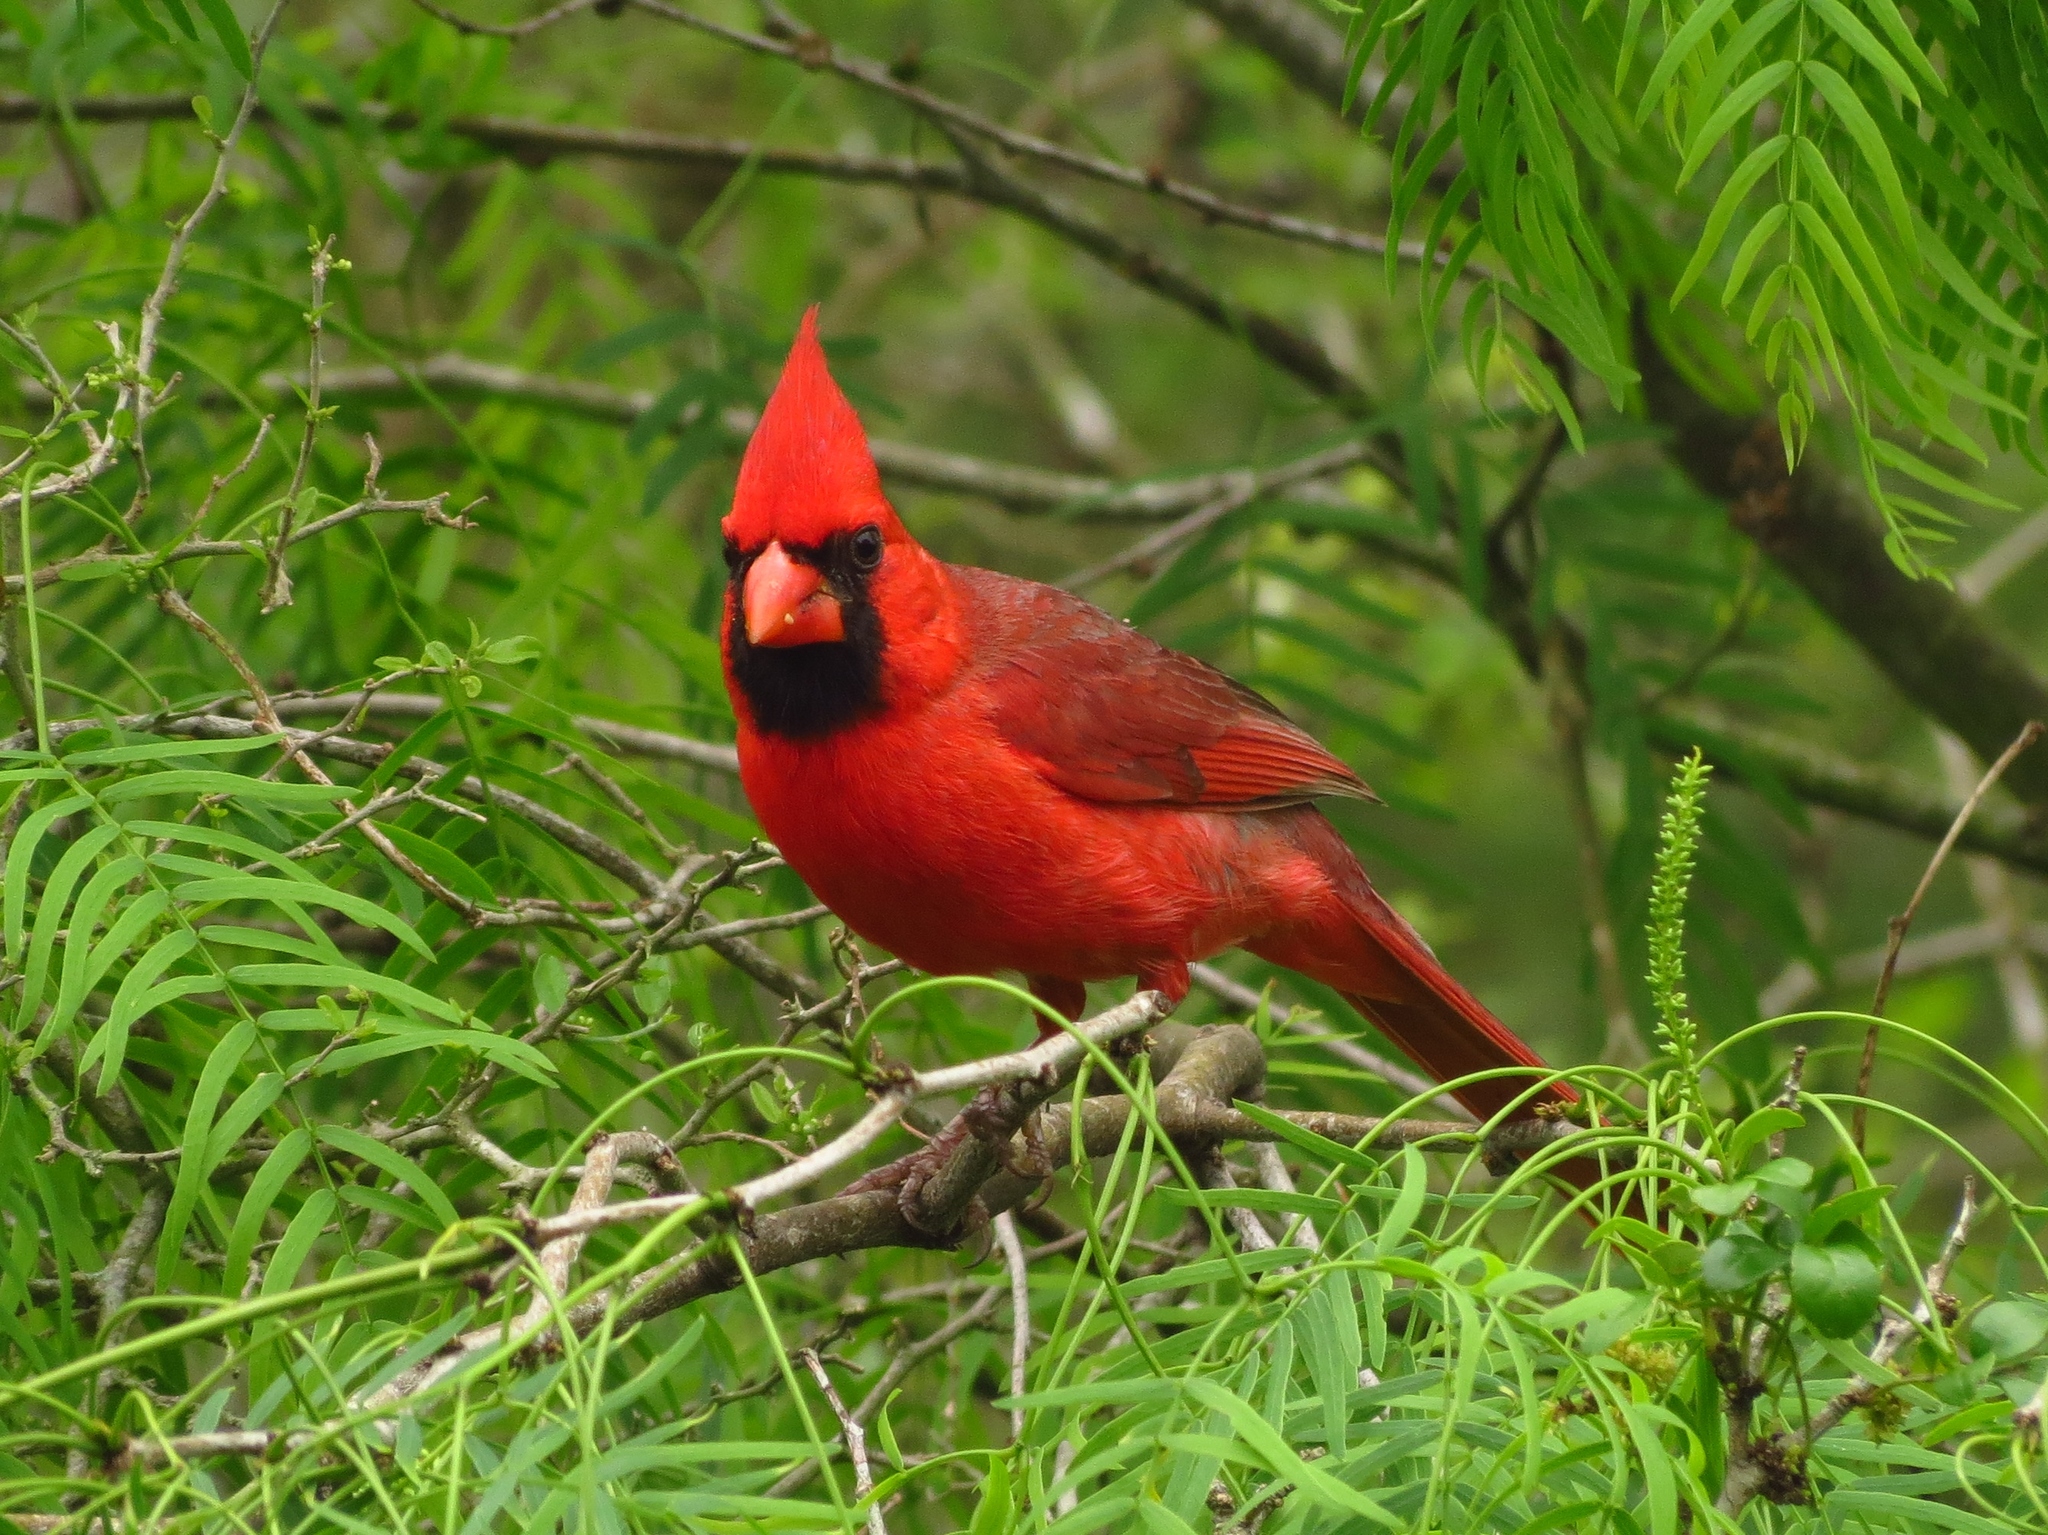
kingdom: Animalia
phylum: Chordata
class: Aves
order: Passeriformes
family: Cardinalidae
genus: Cardinalis
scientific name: Cardinalis cardinalis
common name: Northern cardinal
